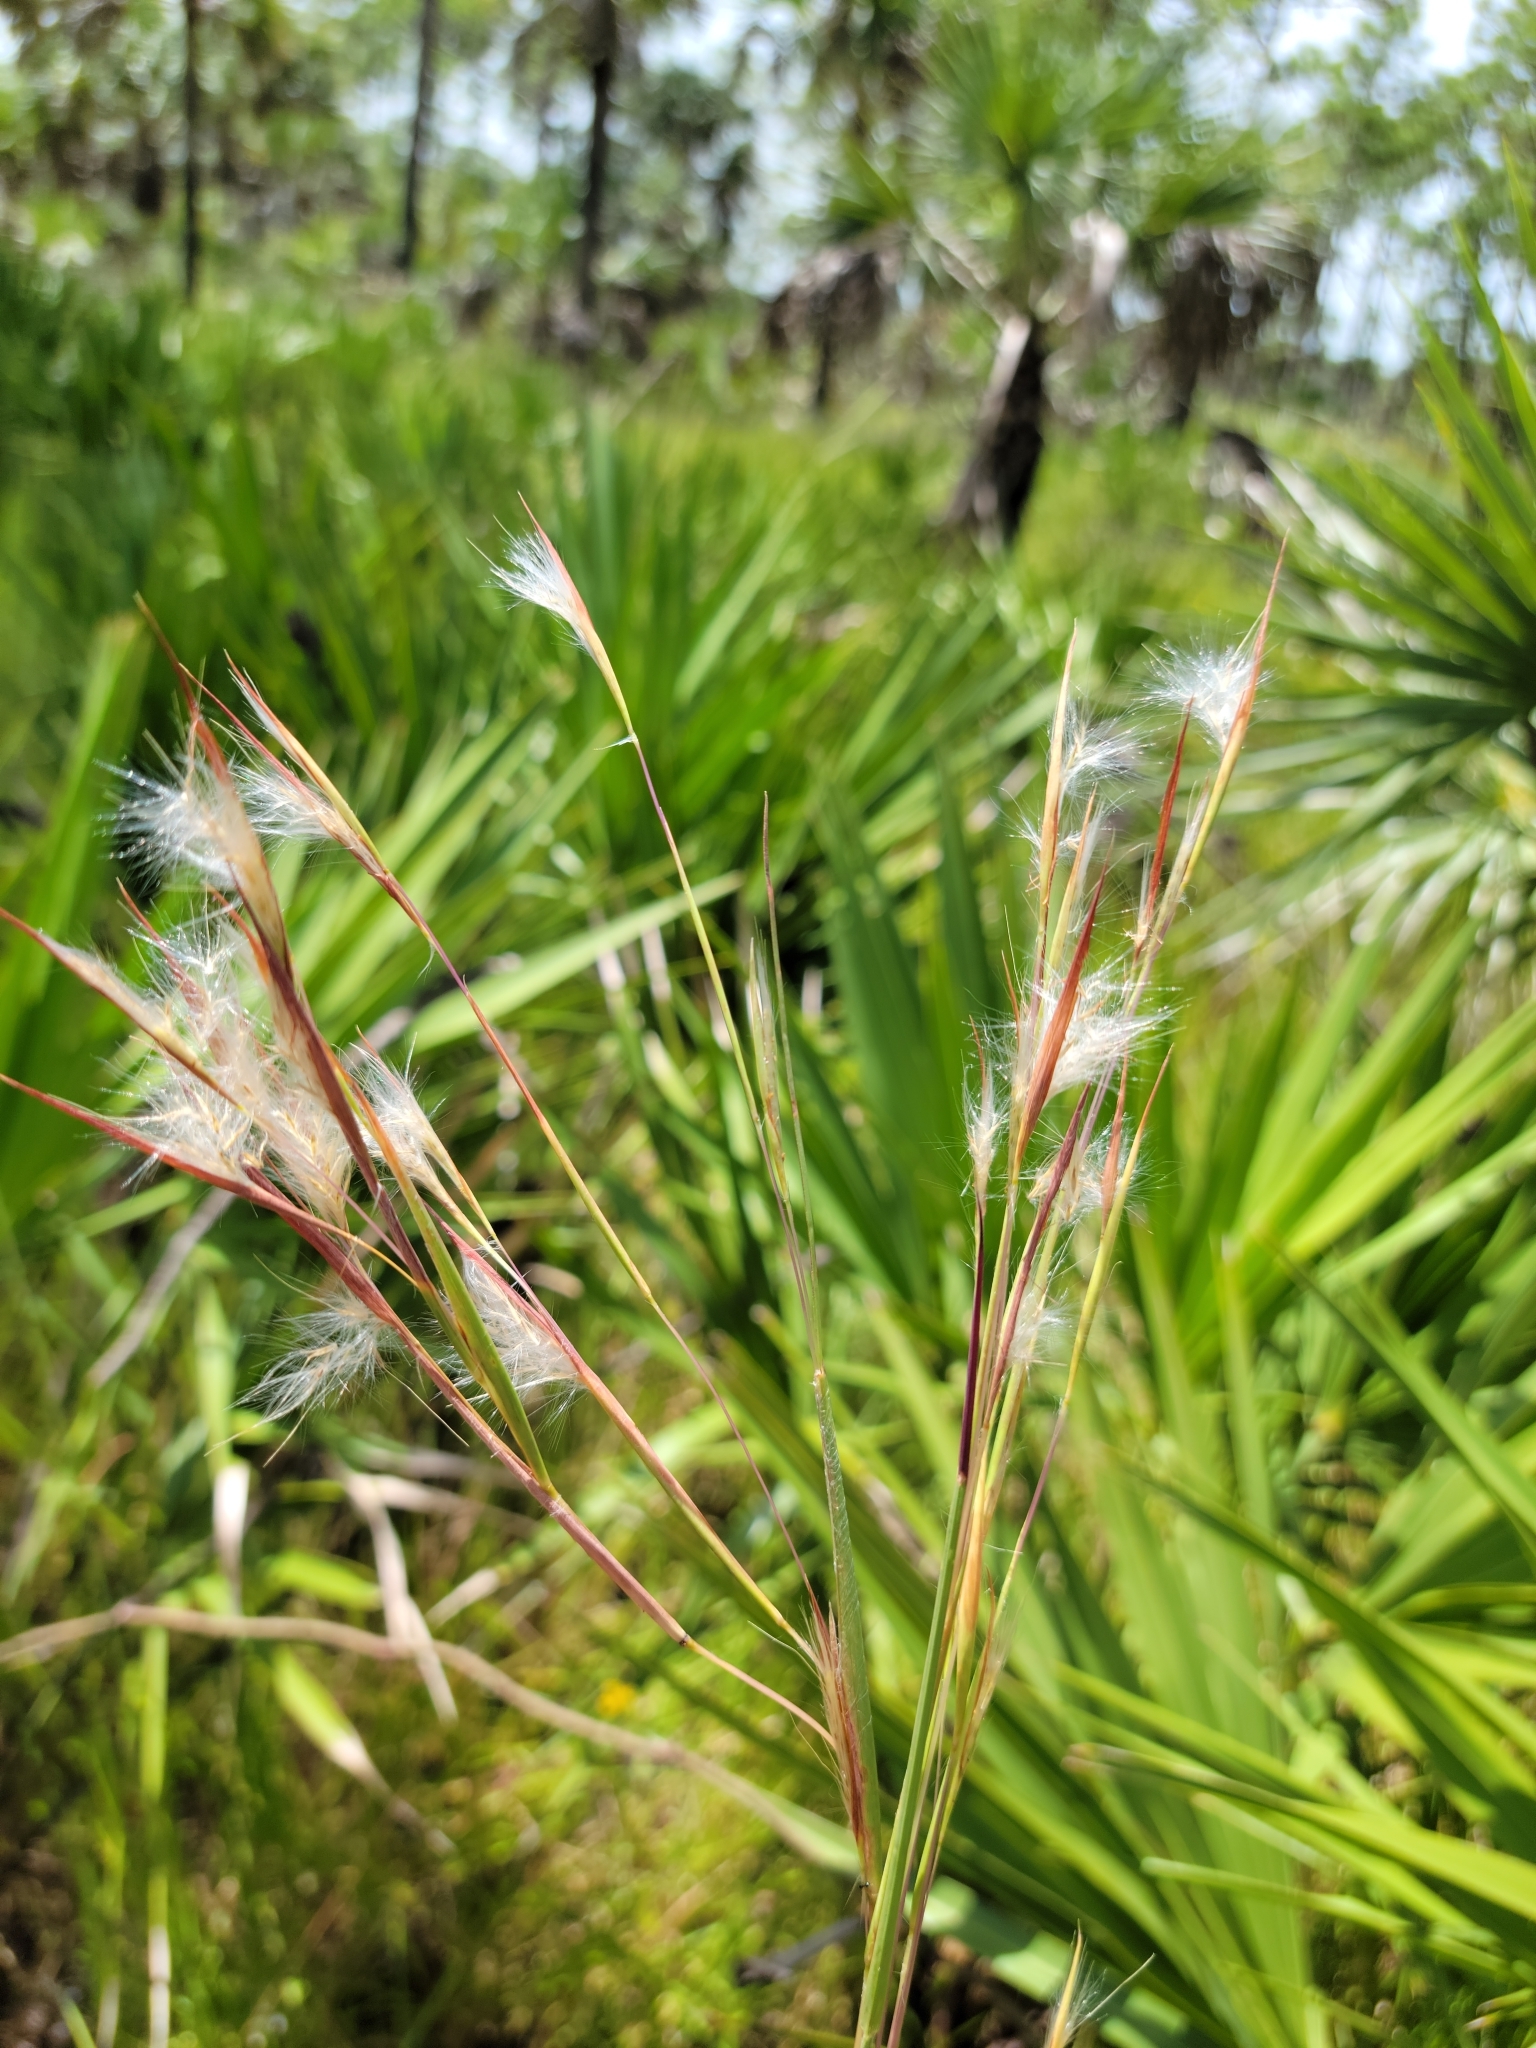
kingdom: Plantae
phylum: Tracheophyta
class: Liliopsida
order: Poales
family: Poaceae
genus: Andropogon
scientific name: Andropogon longiberbis
